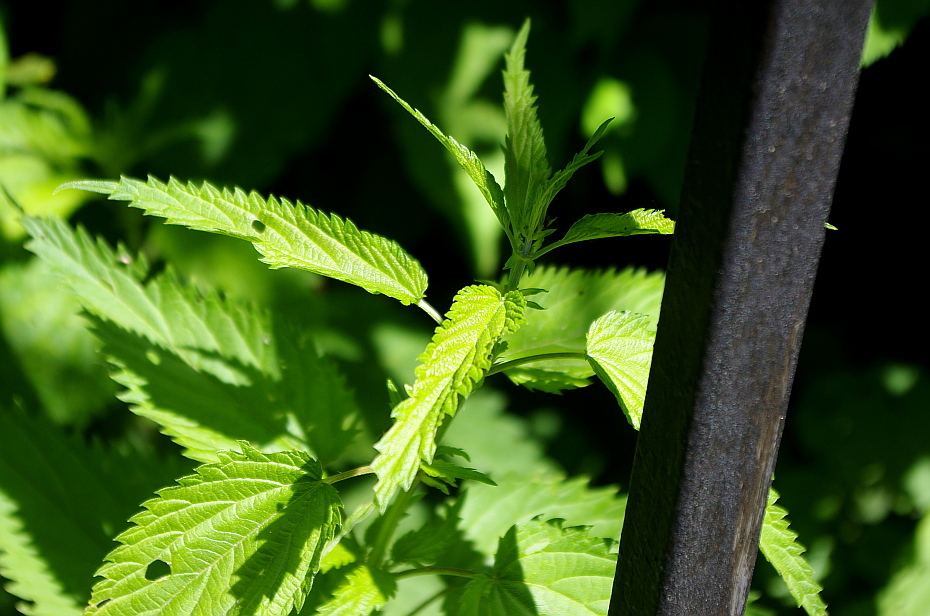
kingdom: Plantae
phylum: Tracheophyta
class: Magnoliopsida
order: Rosales
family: Urticaceae
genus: Urtica
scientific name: Urtica dioica
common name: Common nettle
